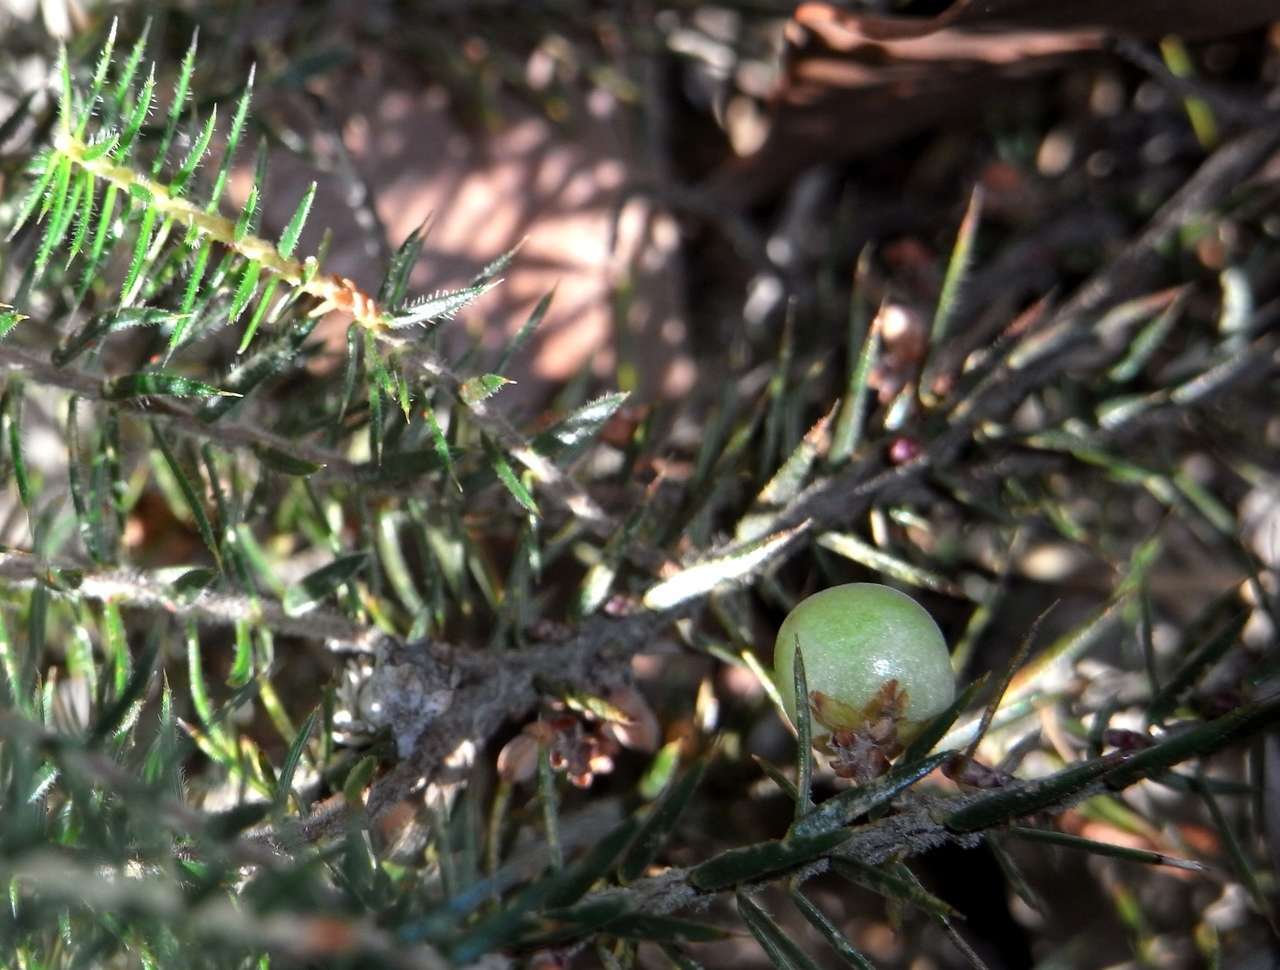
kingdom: Plantae
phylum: Tracheophyta
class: Magnoliopsida
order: Ericales
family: Ericaceae
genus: Acrotriche
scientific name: Acrotriche serrulata
